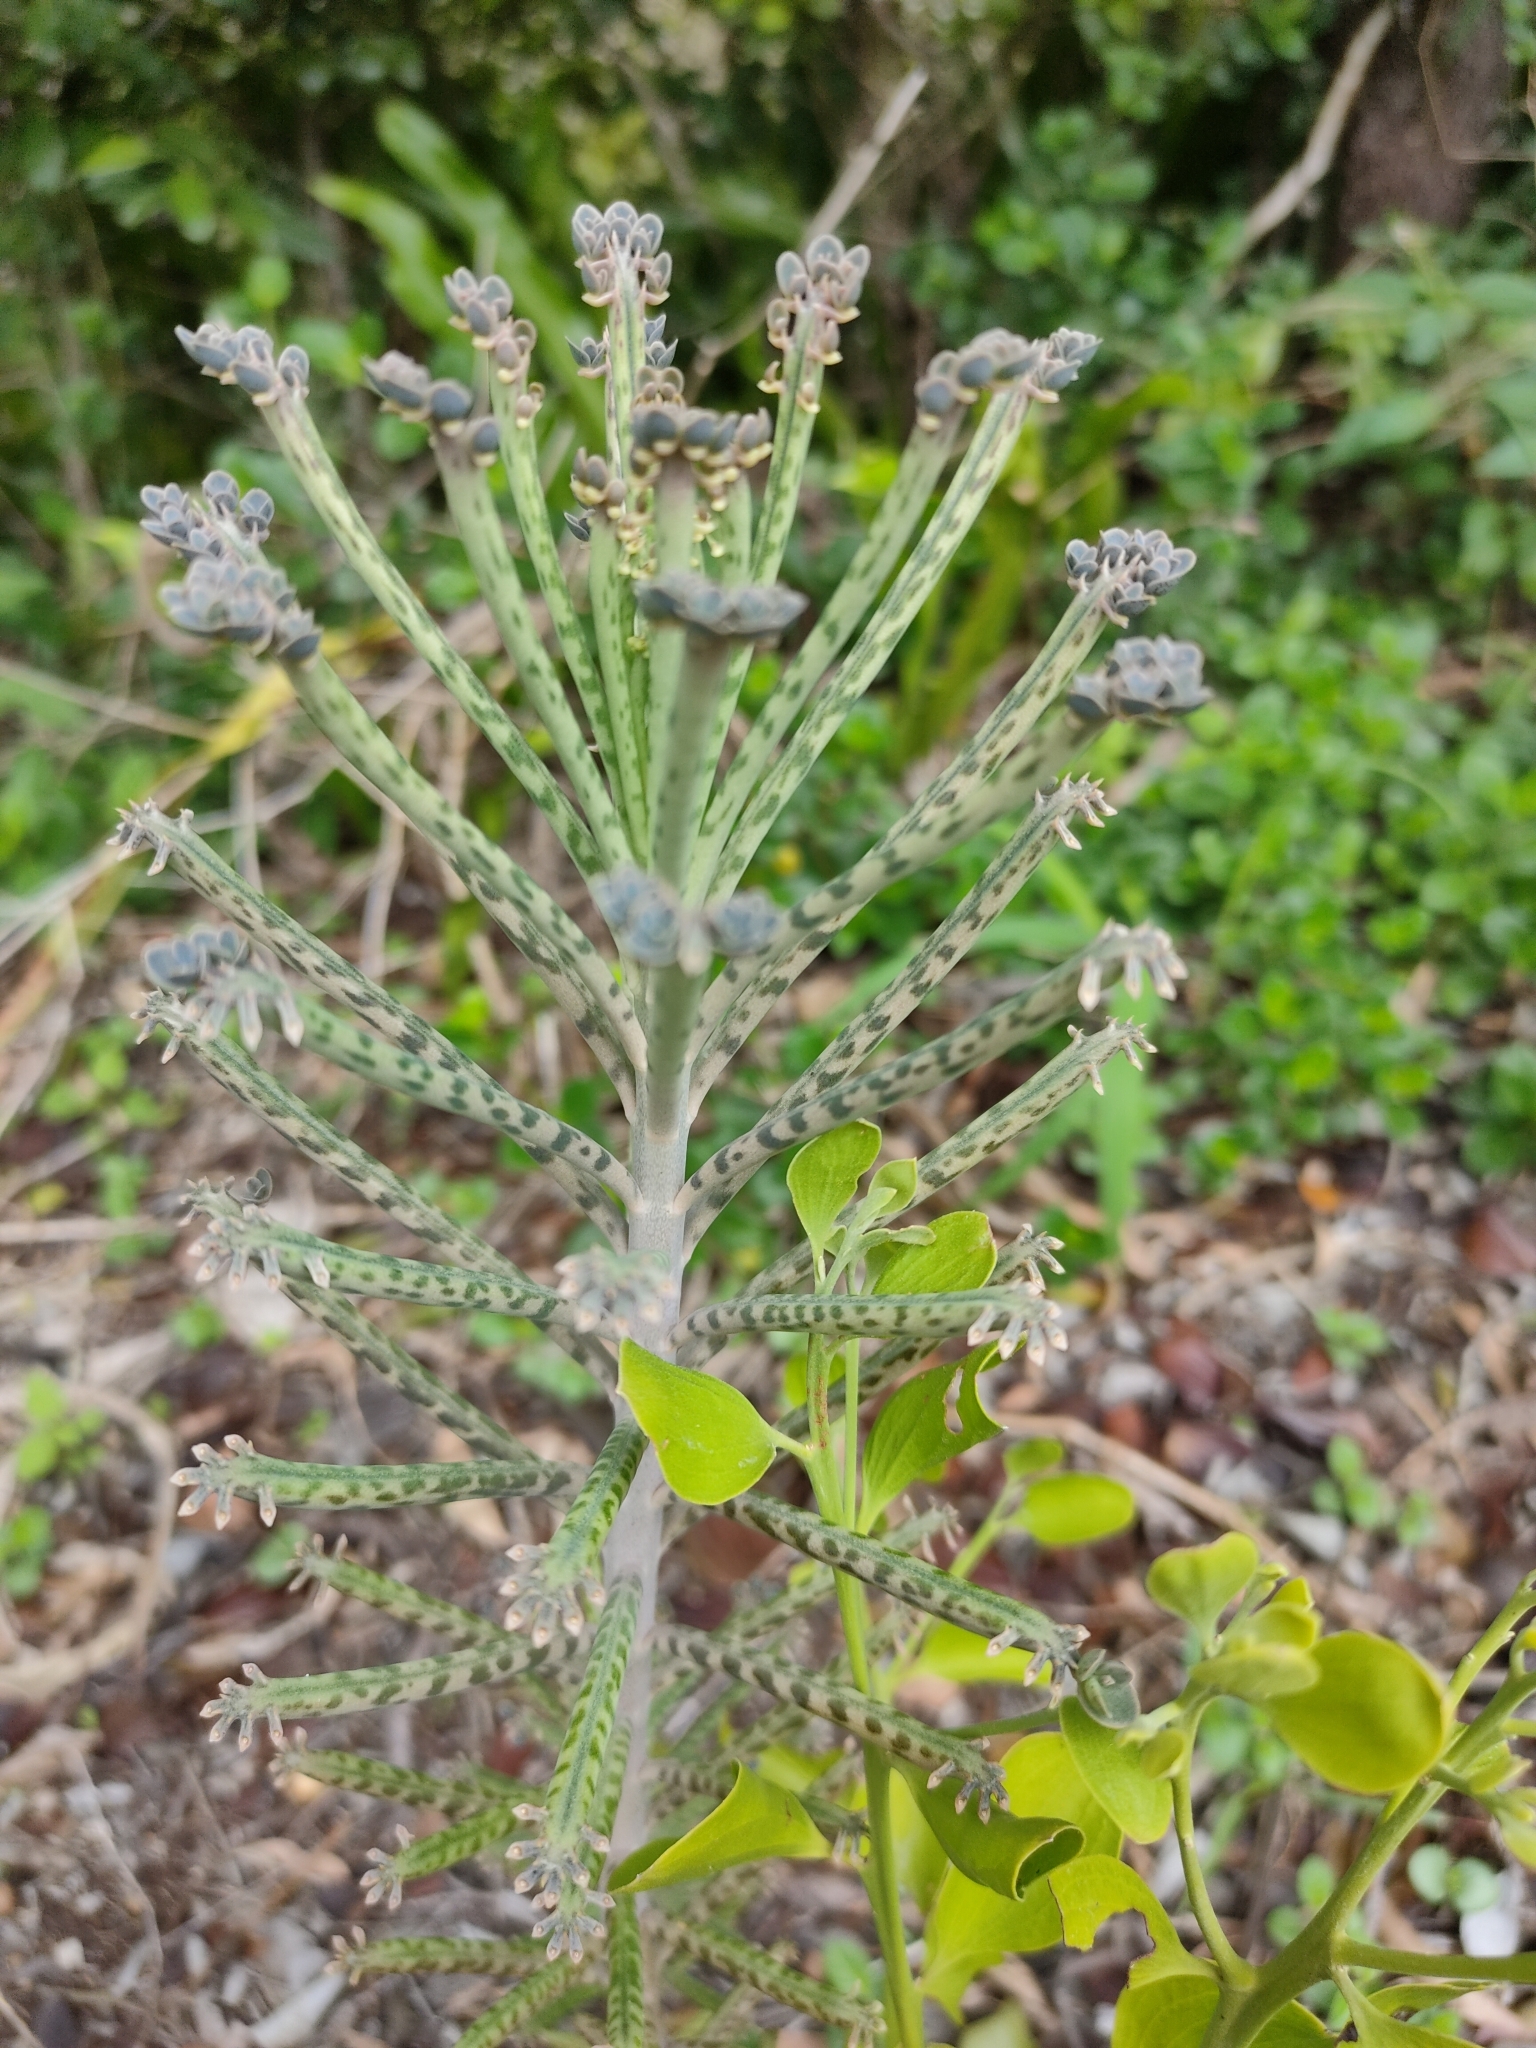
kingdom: Plantae
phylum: Tracheophyta
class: Magnoliopsida
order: Saxifragales
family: Crassulaceae
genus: Kalanchoe
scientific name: Kalanchoe delagoensis
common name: Chandelier plant
